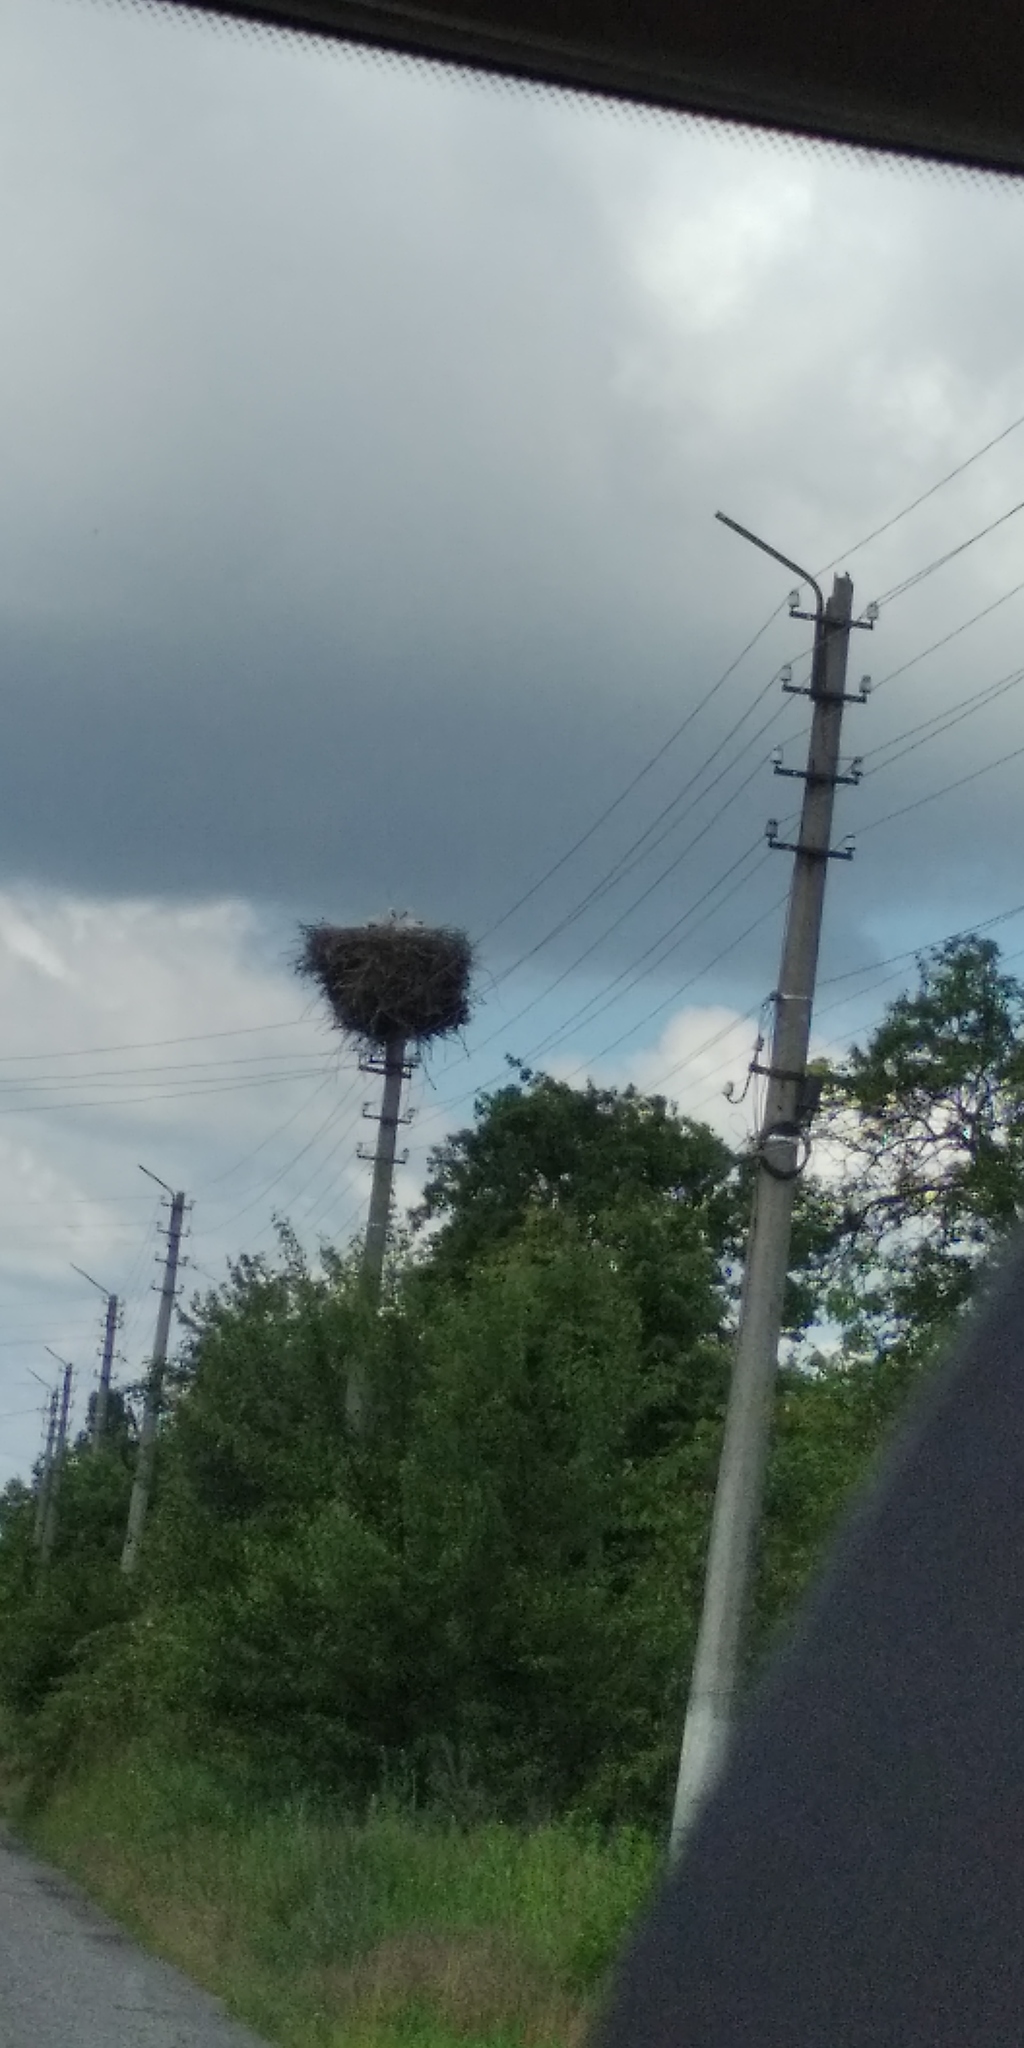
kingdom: Animalia
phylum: Chordata
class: Aves
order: Ciconiiformes
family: Ciconiidae
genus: Ciconia
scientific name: Ciconia ciconia
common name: White stork
